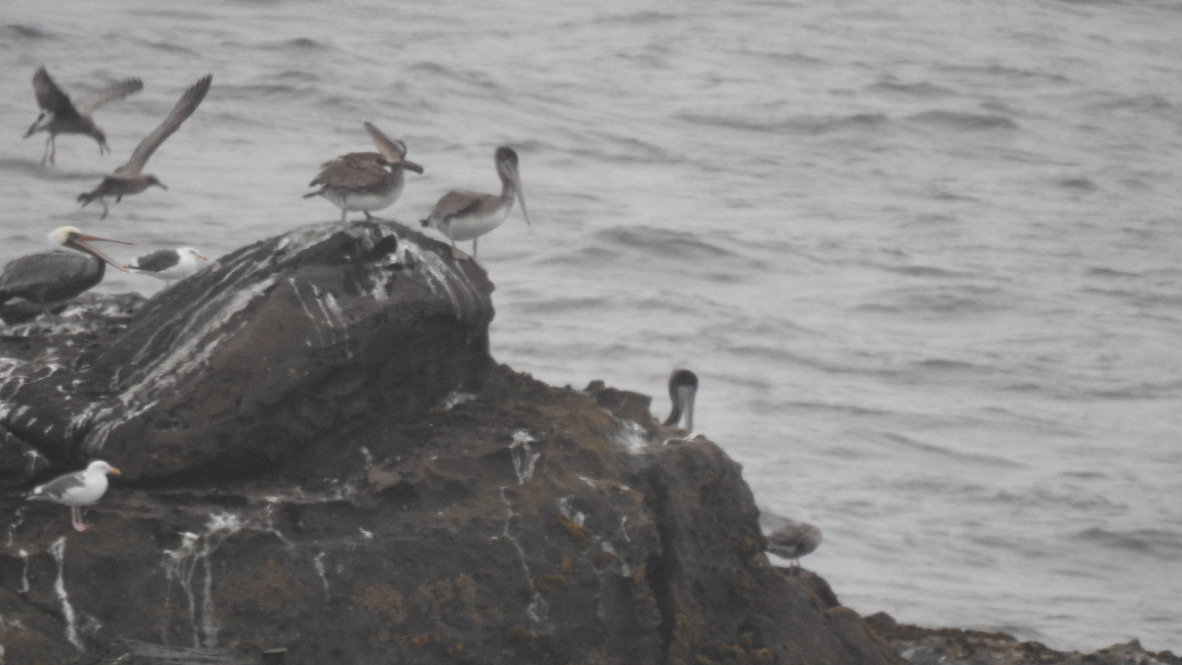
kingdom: Animalia
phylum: Chordata
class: Aves
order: Pelecaniformes
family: Pelecanidae
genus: Pelecanus
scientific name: Pelecanus occidentalis
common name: Brown pelican
